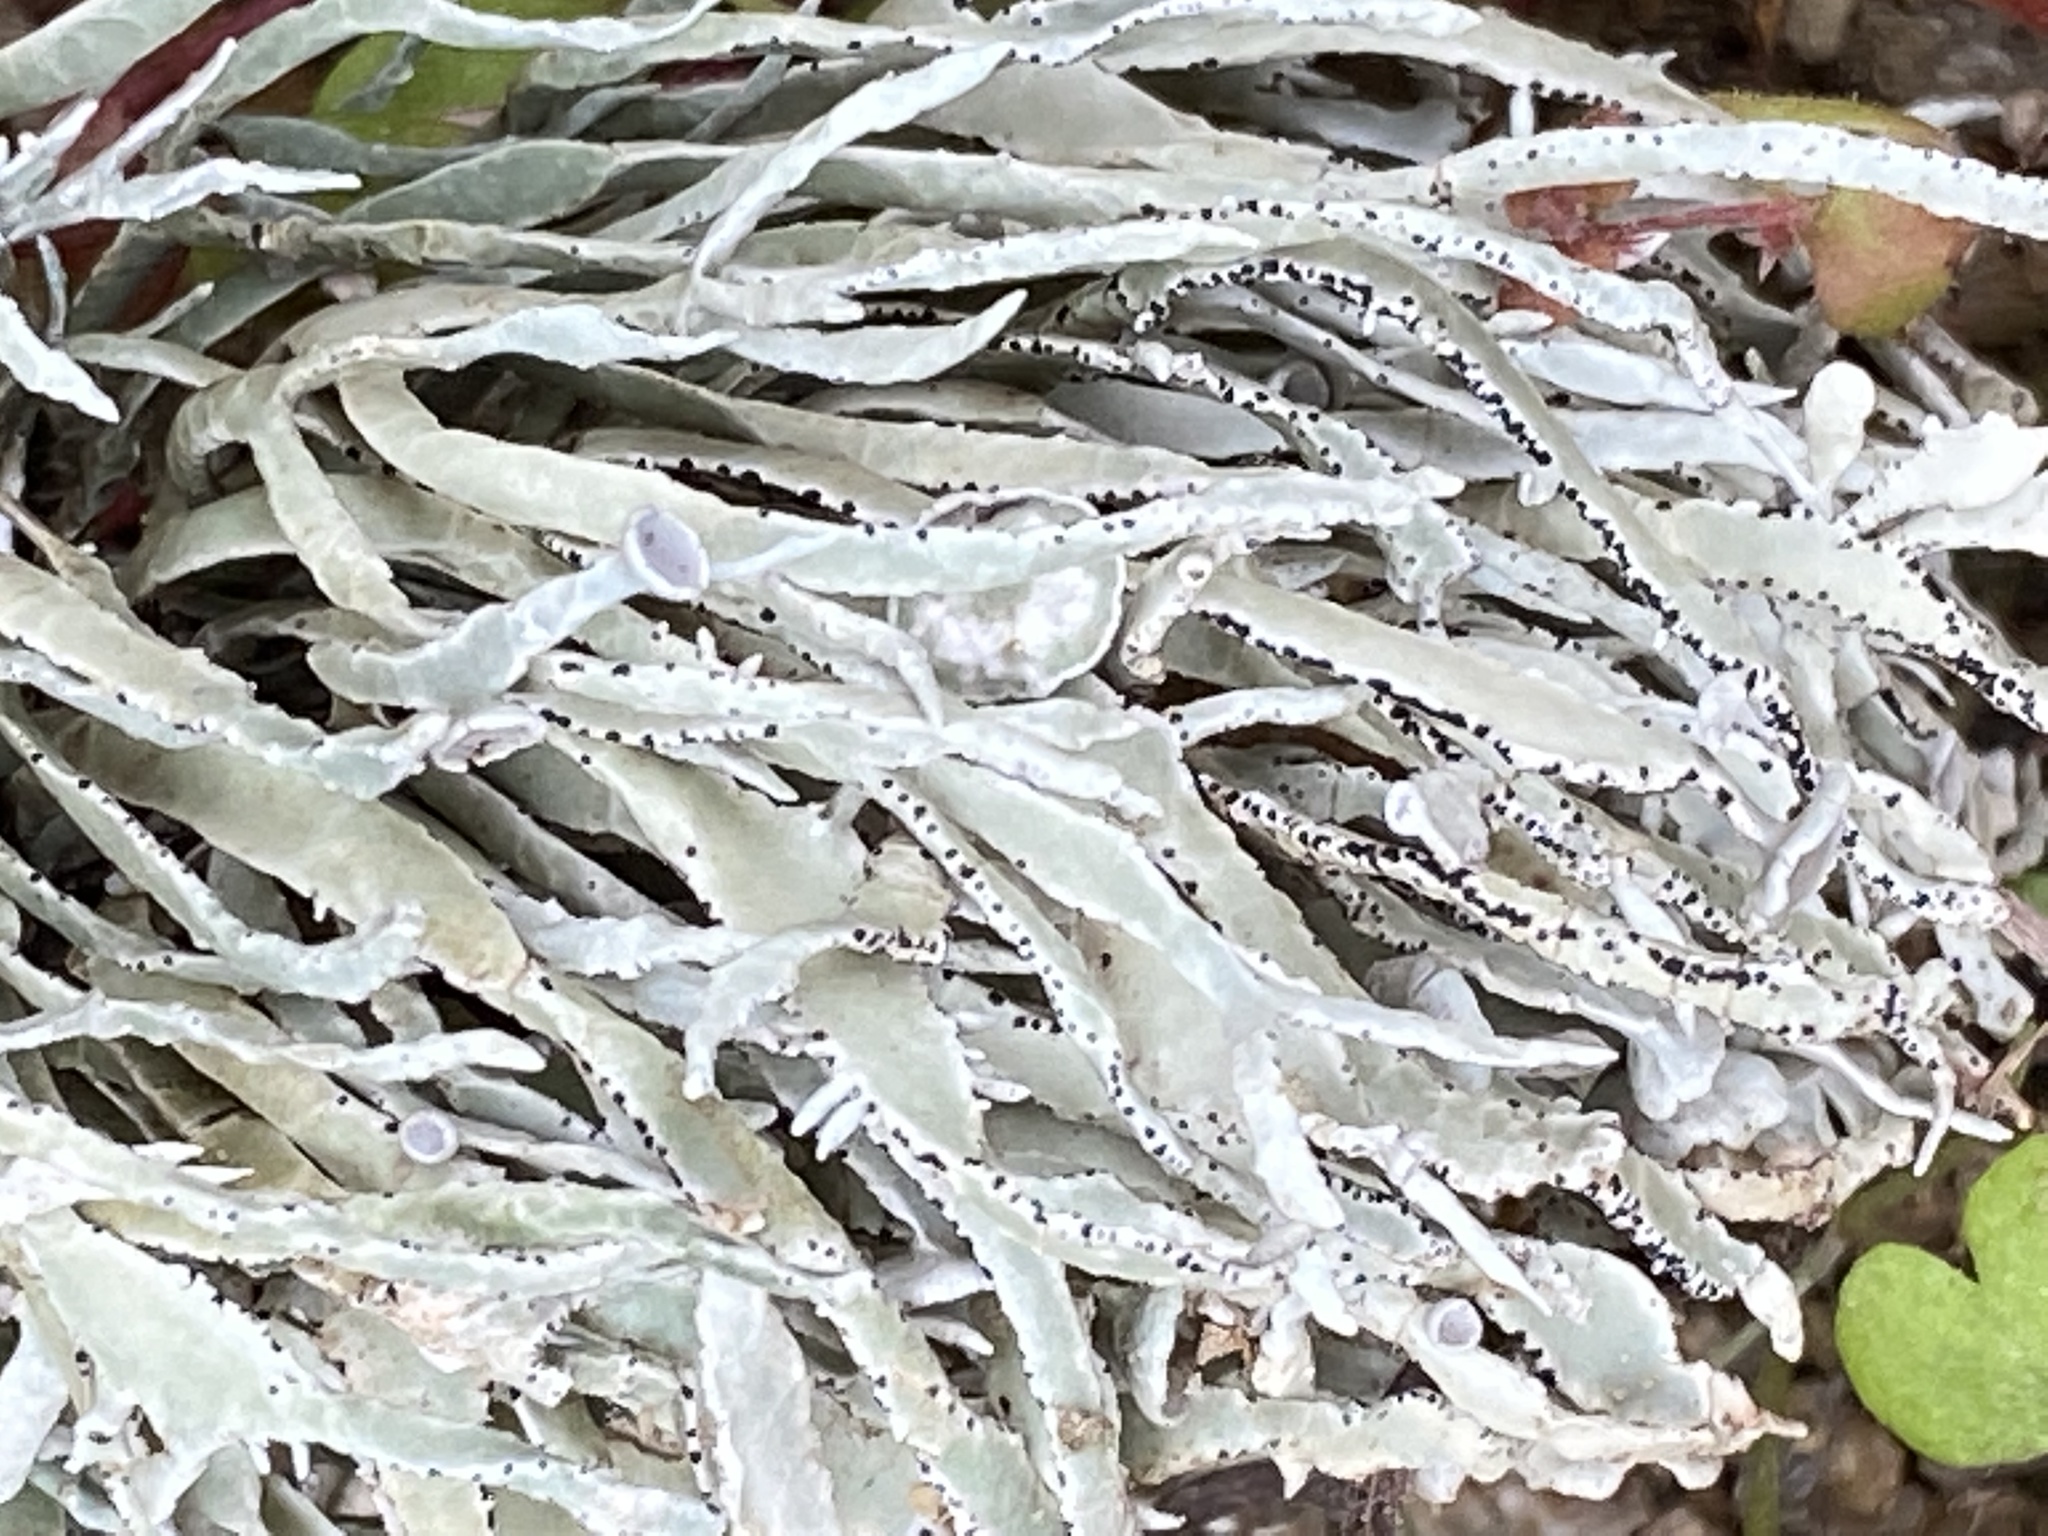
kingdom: Fungi
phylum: Ascomycota
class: Lecanoromycetes
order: Lecanorales
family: Ramalinaceae
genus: Niebla
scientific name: Niebla homalea
